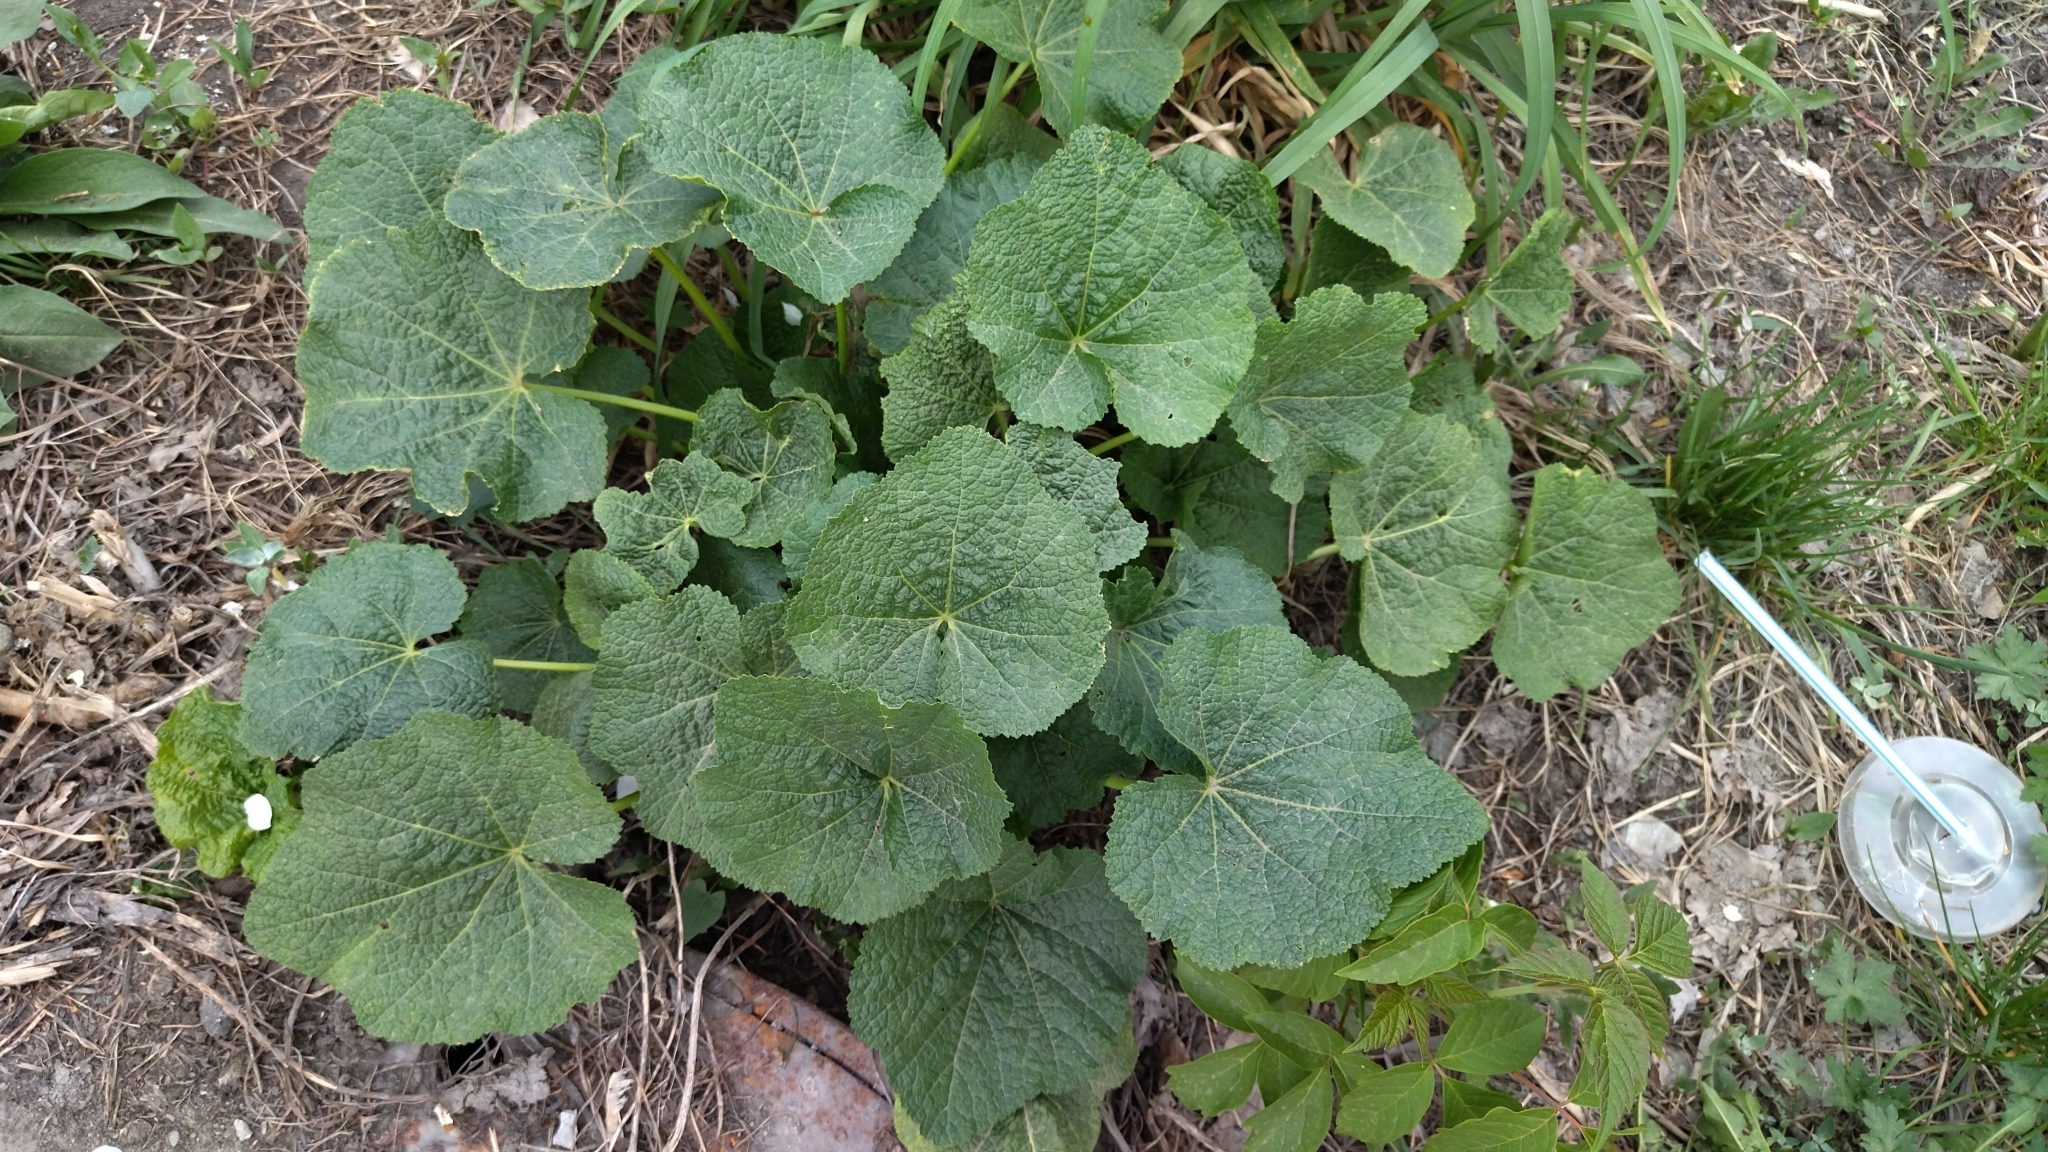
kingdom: Plantae
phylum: Tracheophyta
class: Magnoliopsida
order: Malvales
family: Malvaceae
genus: Alcea
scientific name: Alcea rosea
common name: Hollyhock
